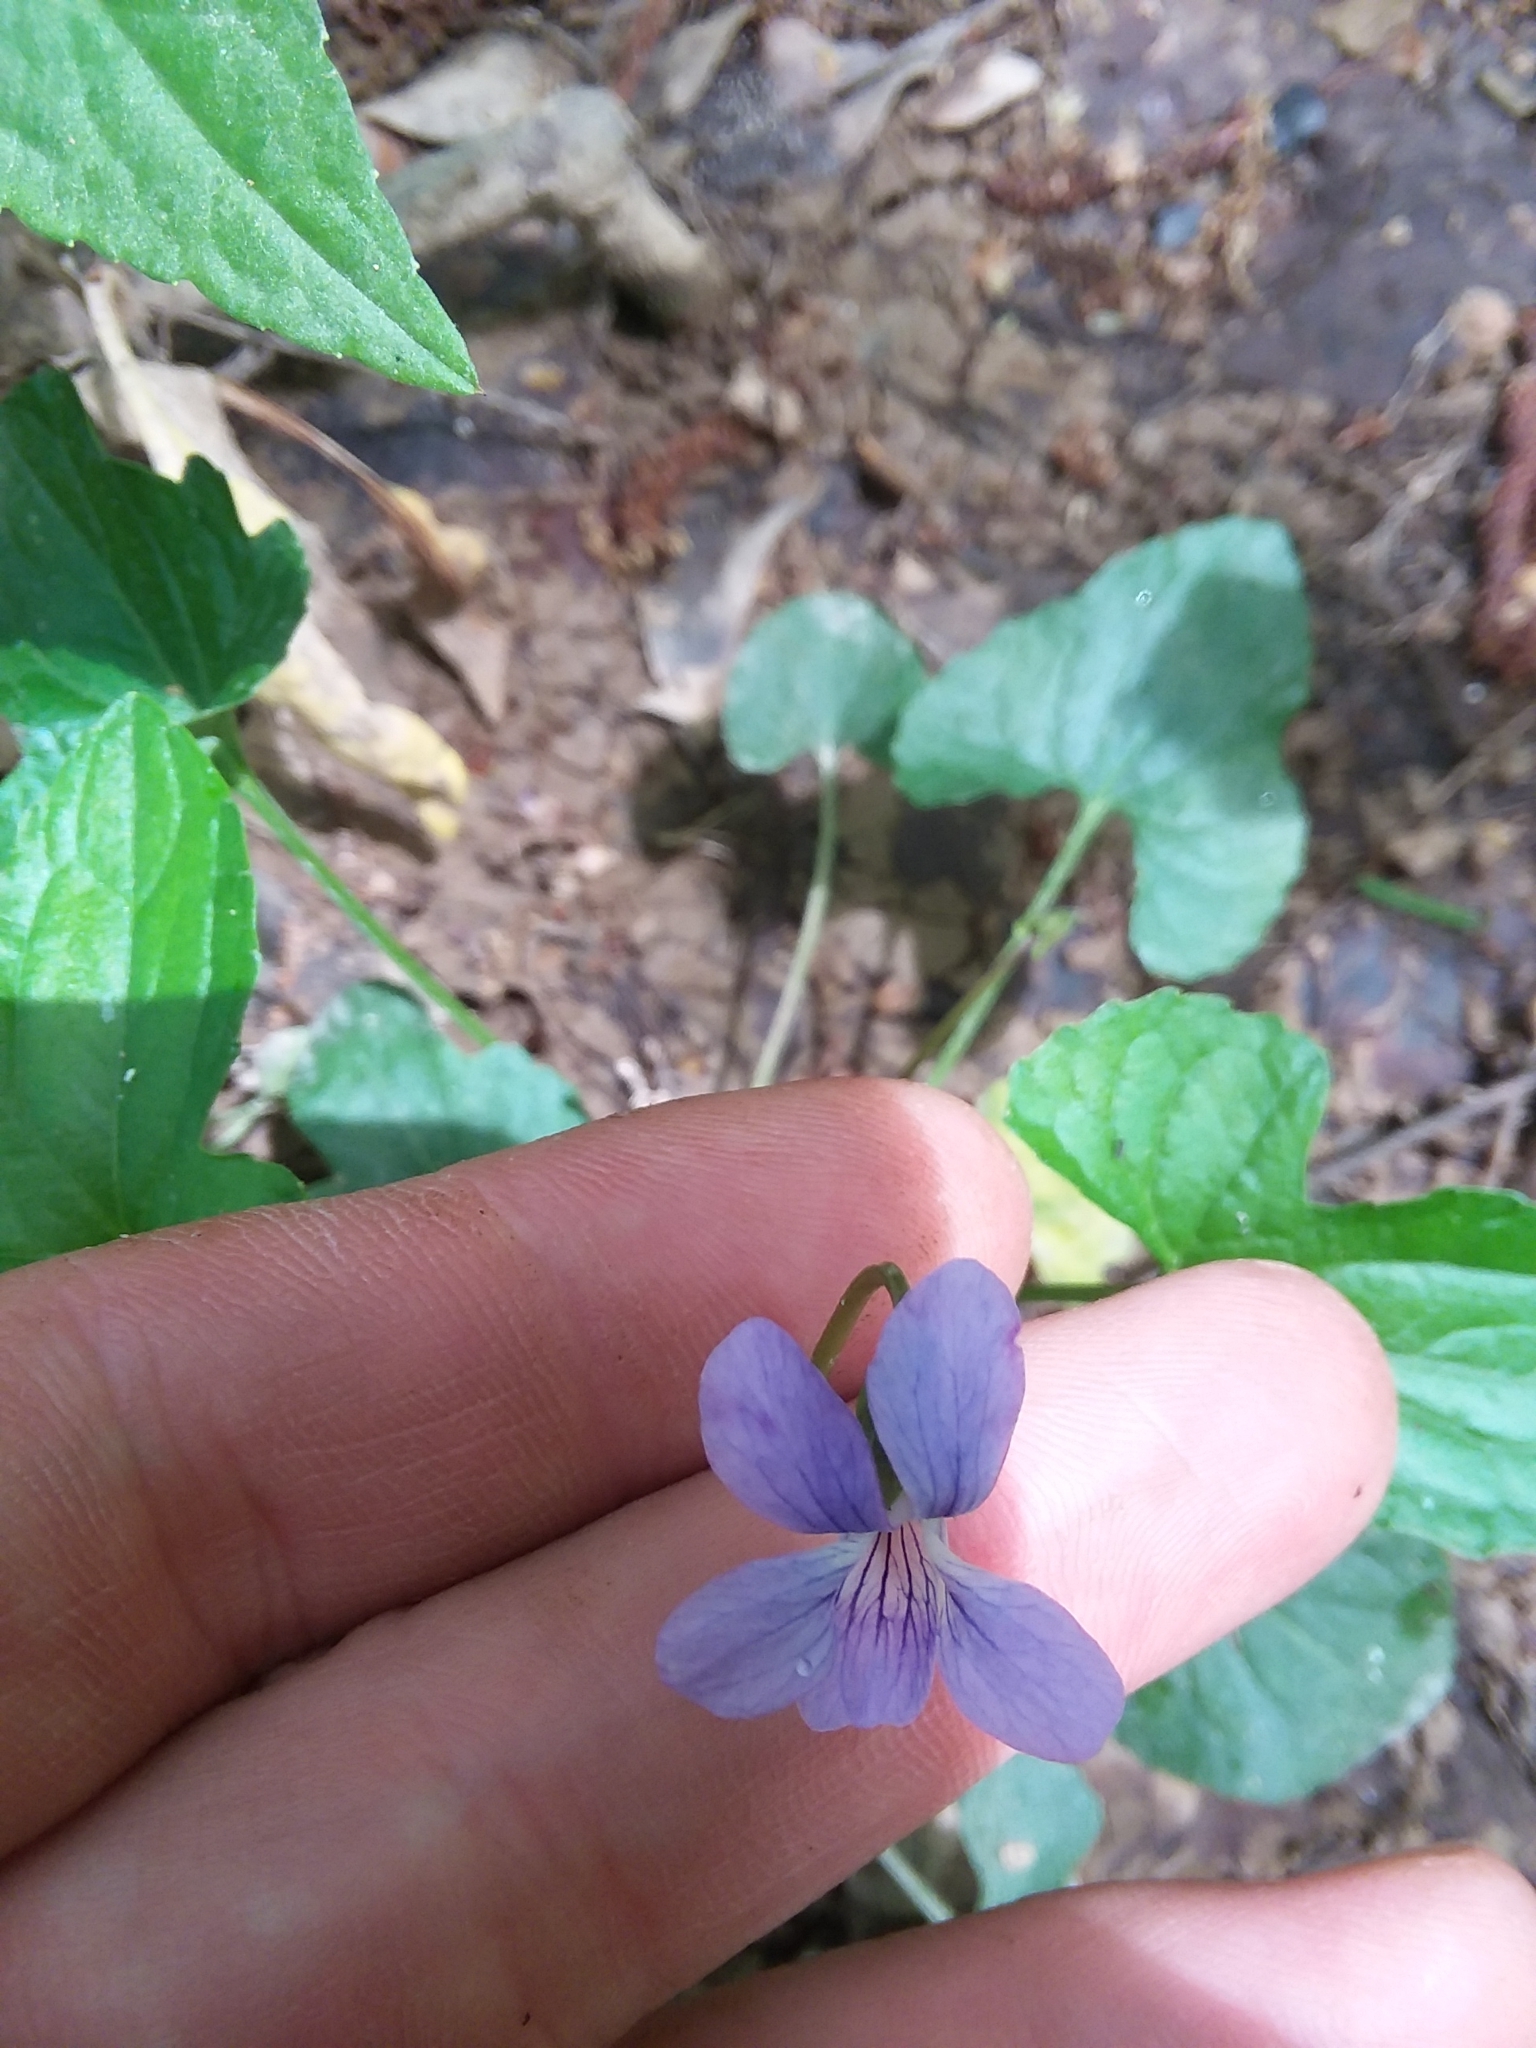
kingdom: Plantae
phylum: Tracheophyta
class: Magnoliopsida
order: Malpighiales
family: Violaceae
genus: Viola
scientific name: Viola edulis
